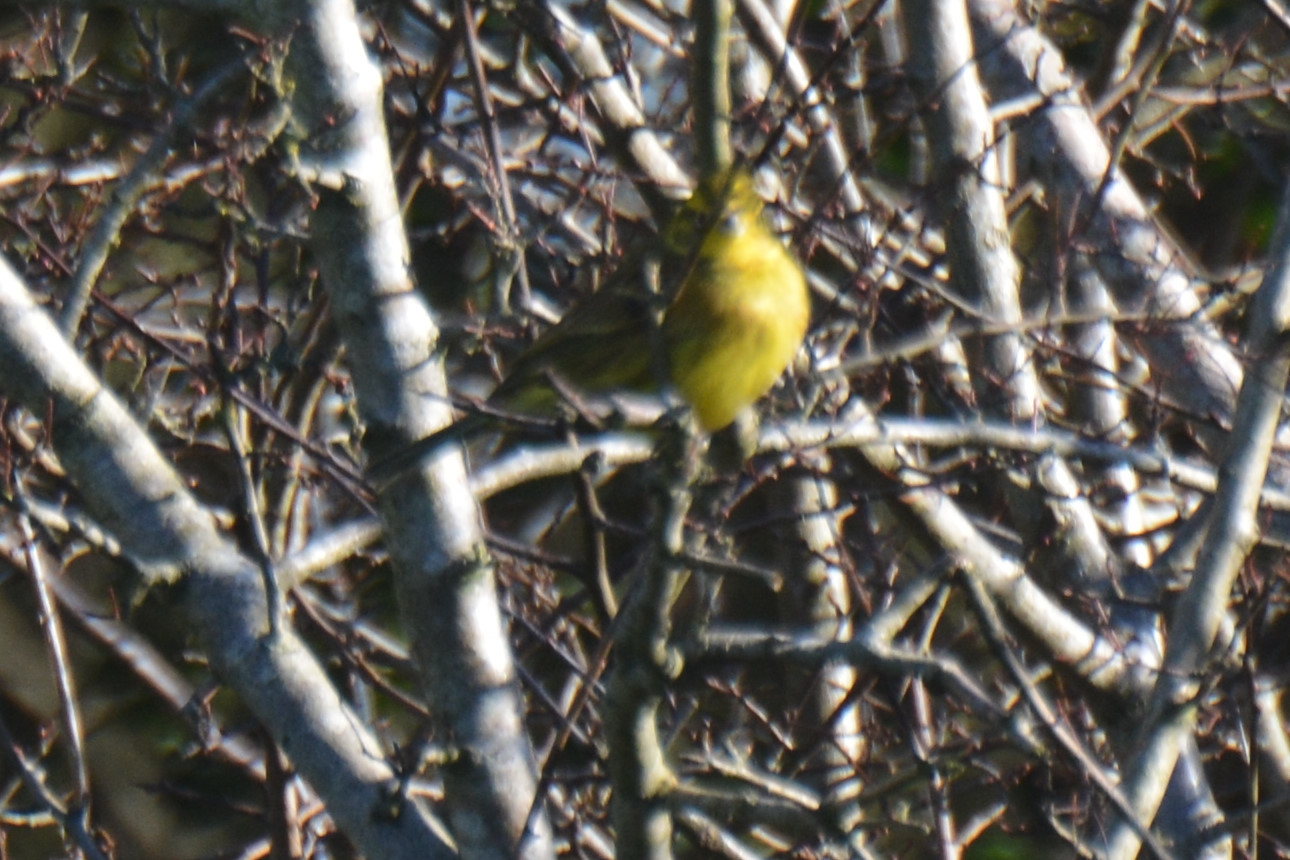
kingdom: Animalia
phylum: Chordata
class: Aves
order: Passeriformes
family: Emberizidae
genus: Emberiza
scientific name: Emberiza citrinella
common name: Yellowhammer
